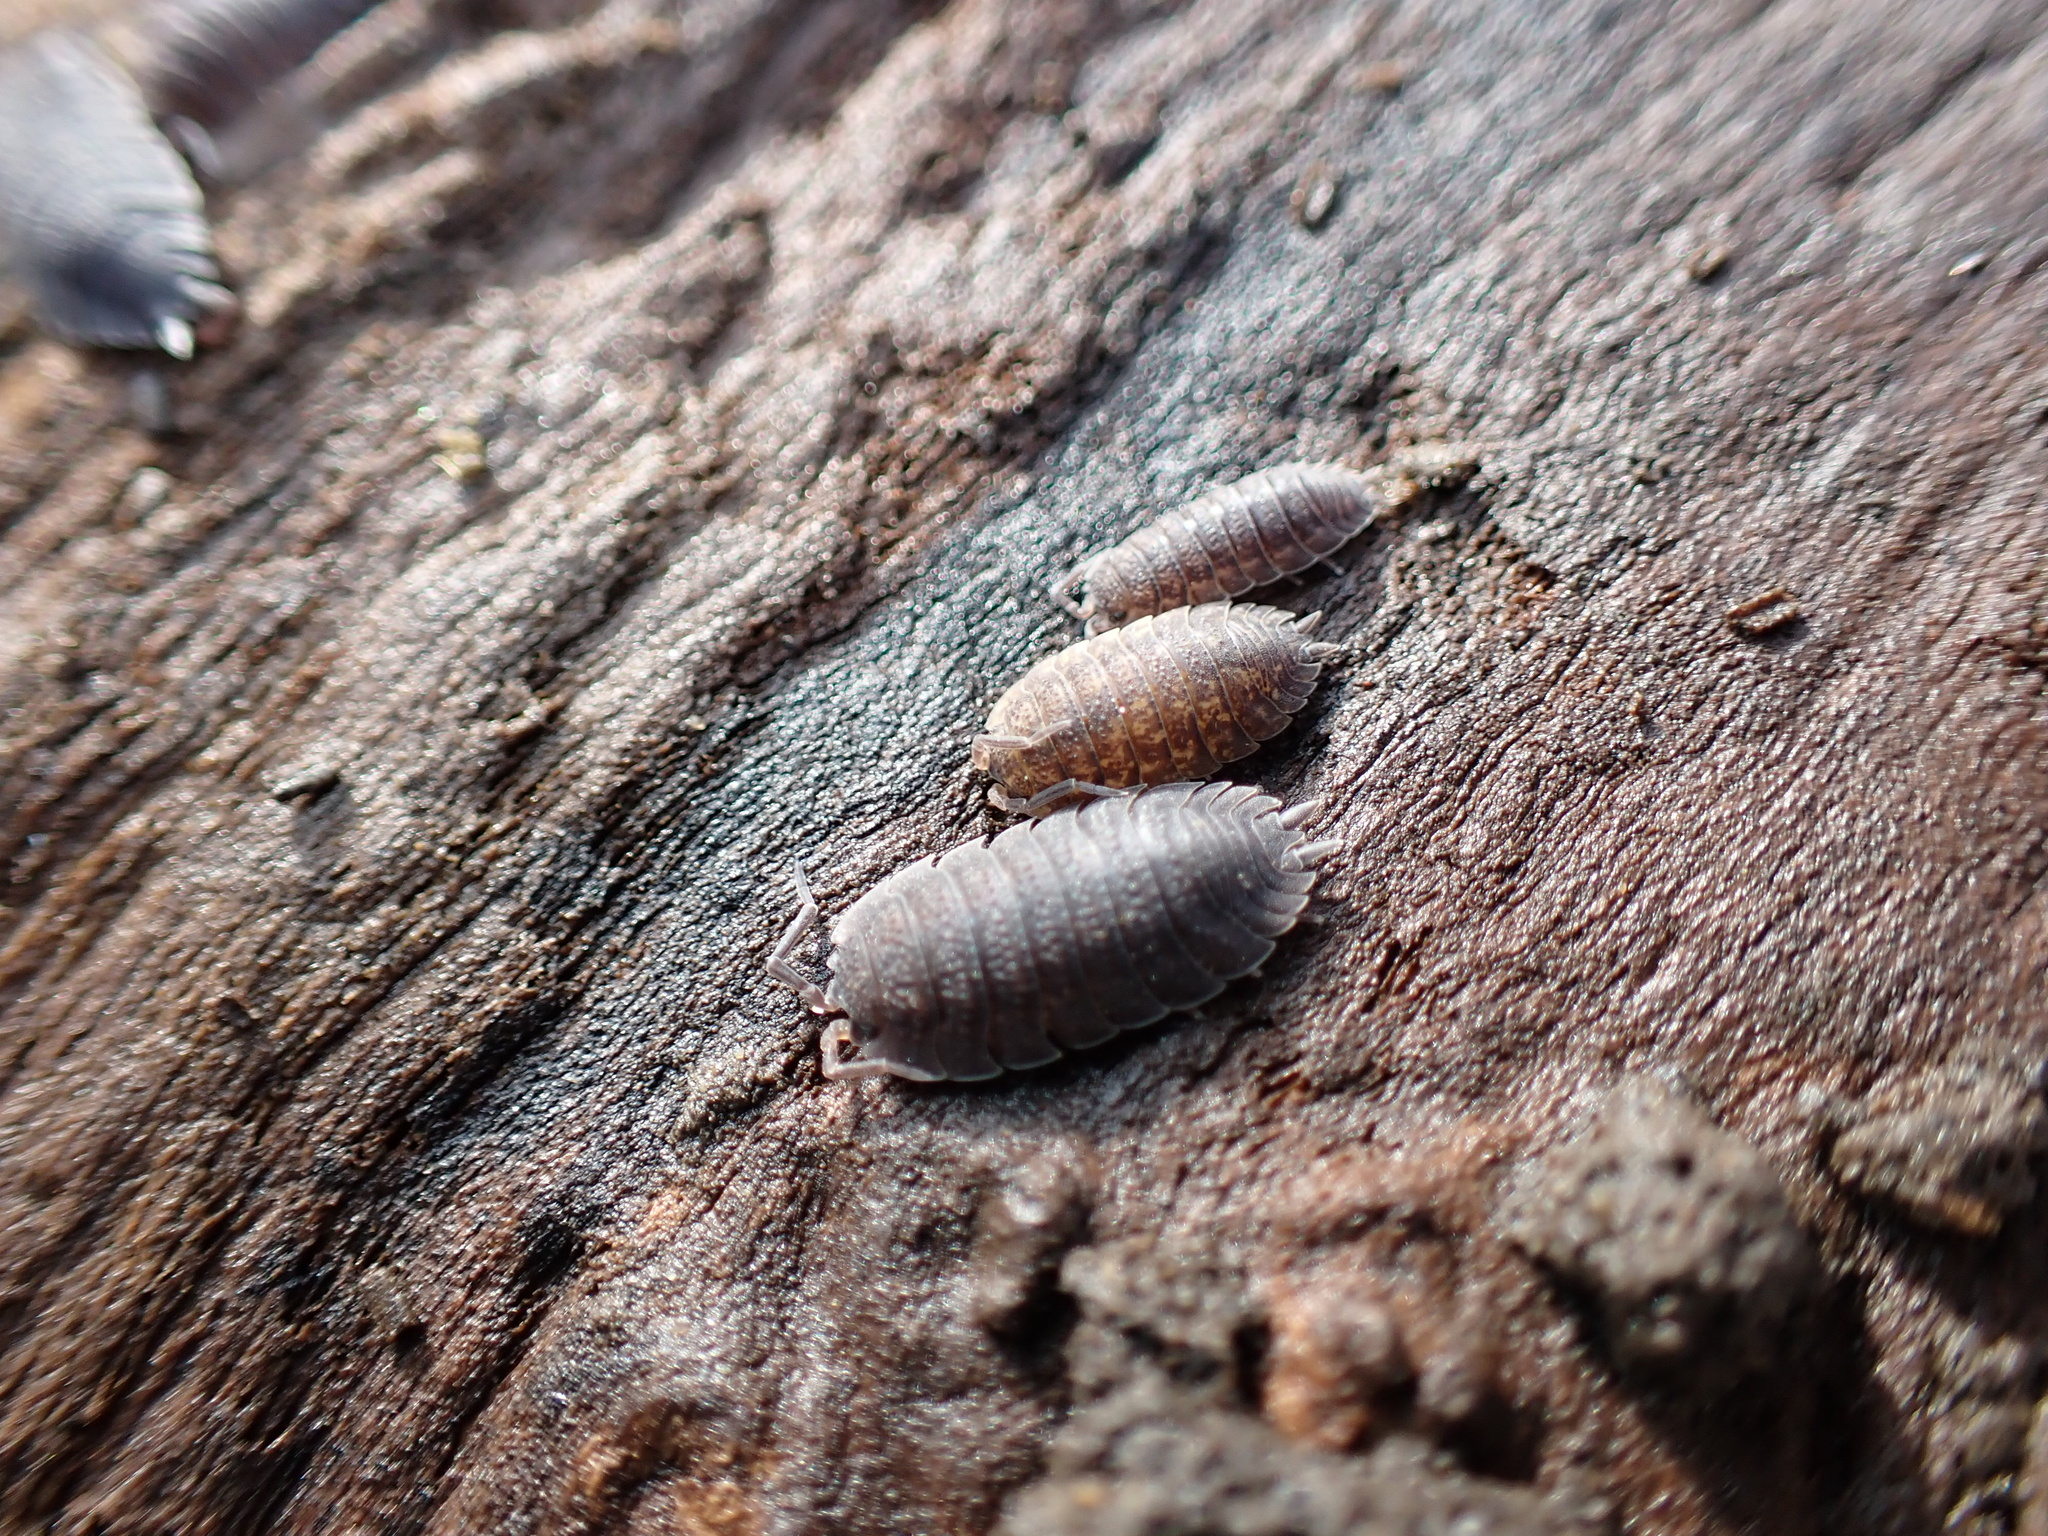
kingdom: Animalia
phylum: Arthropoda
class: Malacostraca
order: Isopoda
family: Porcellionidae
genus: Porcellio
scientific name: Porcellio scaber
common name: Common rough woodlouse
